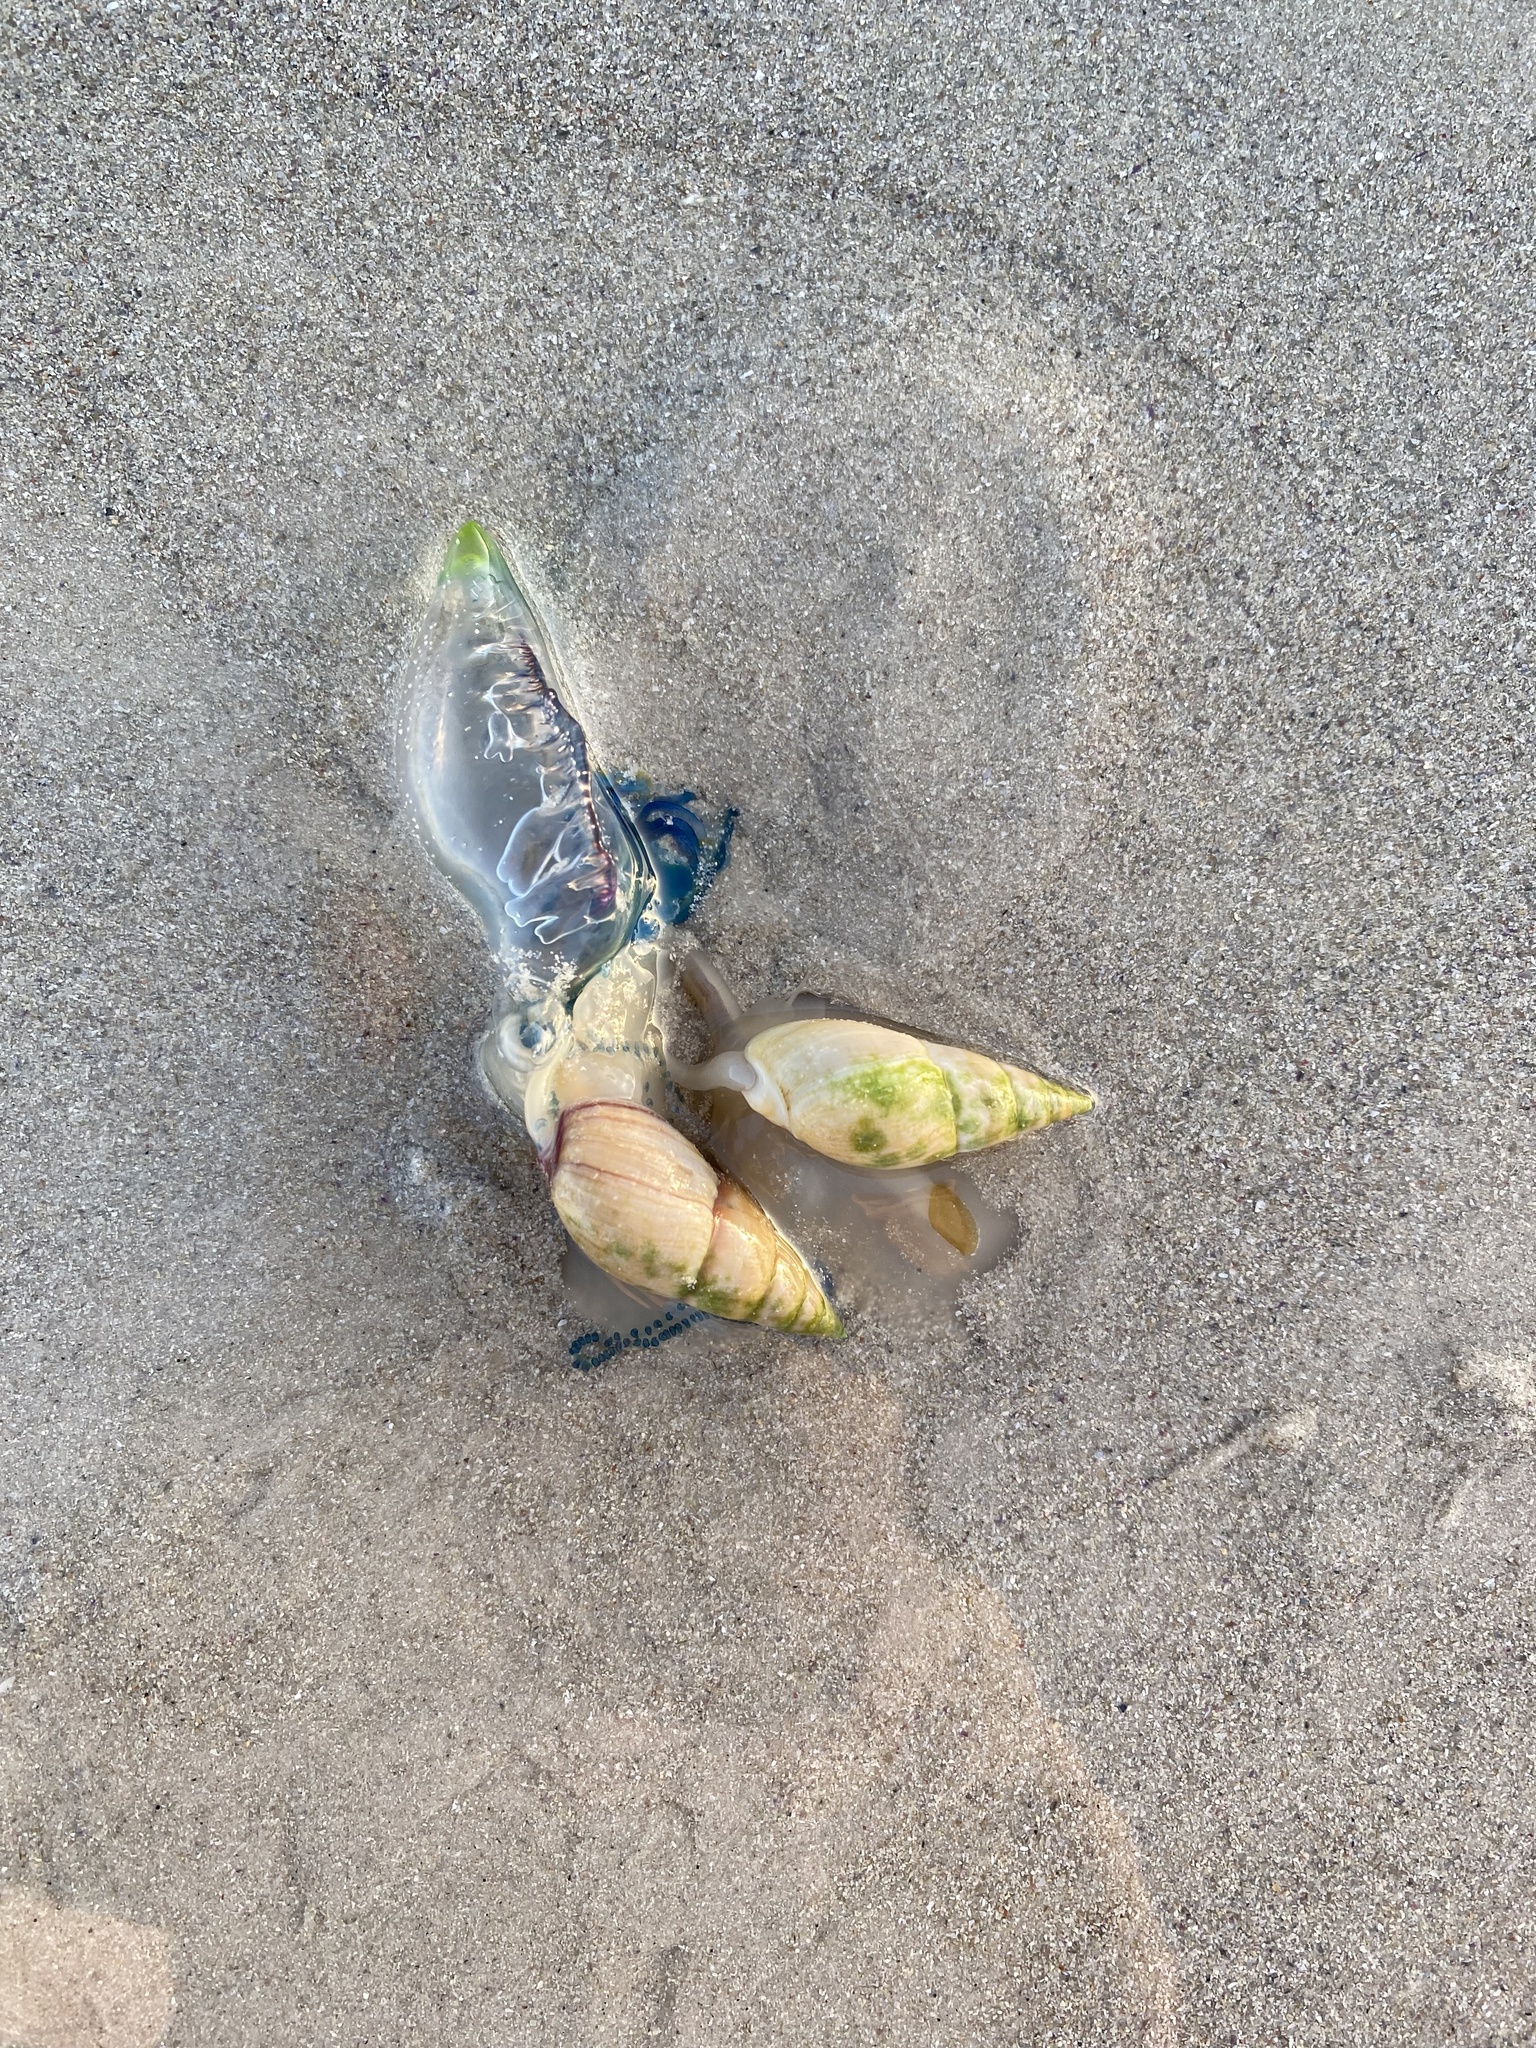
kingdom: Animalia
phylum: Mollusca
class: Gastropoda
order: Neogastropoda
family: Nassariidae
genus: Bullia
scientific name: Bullia rhodostoma
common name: Smooth plough shell
